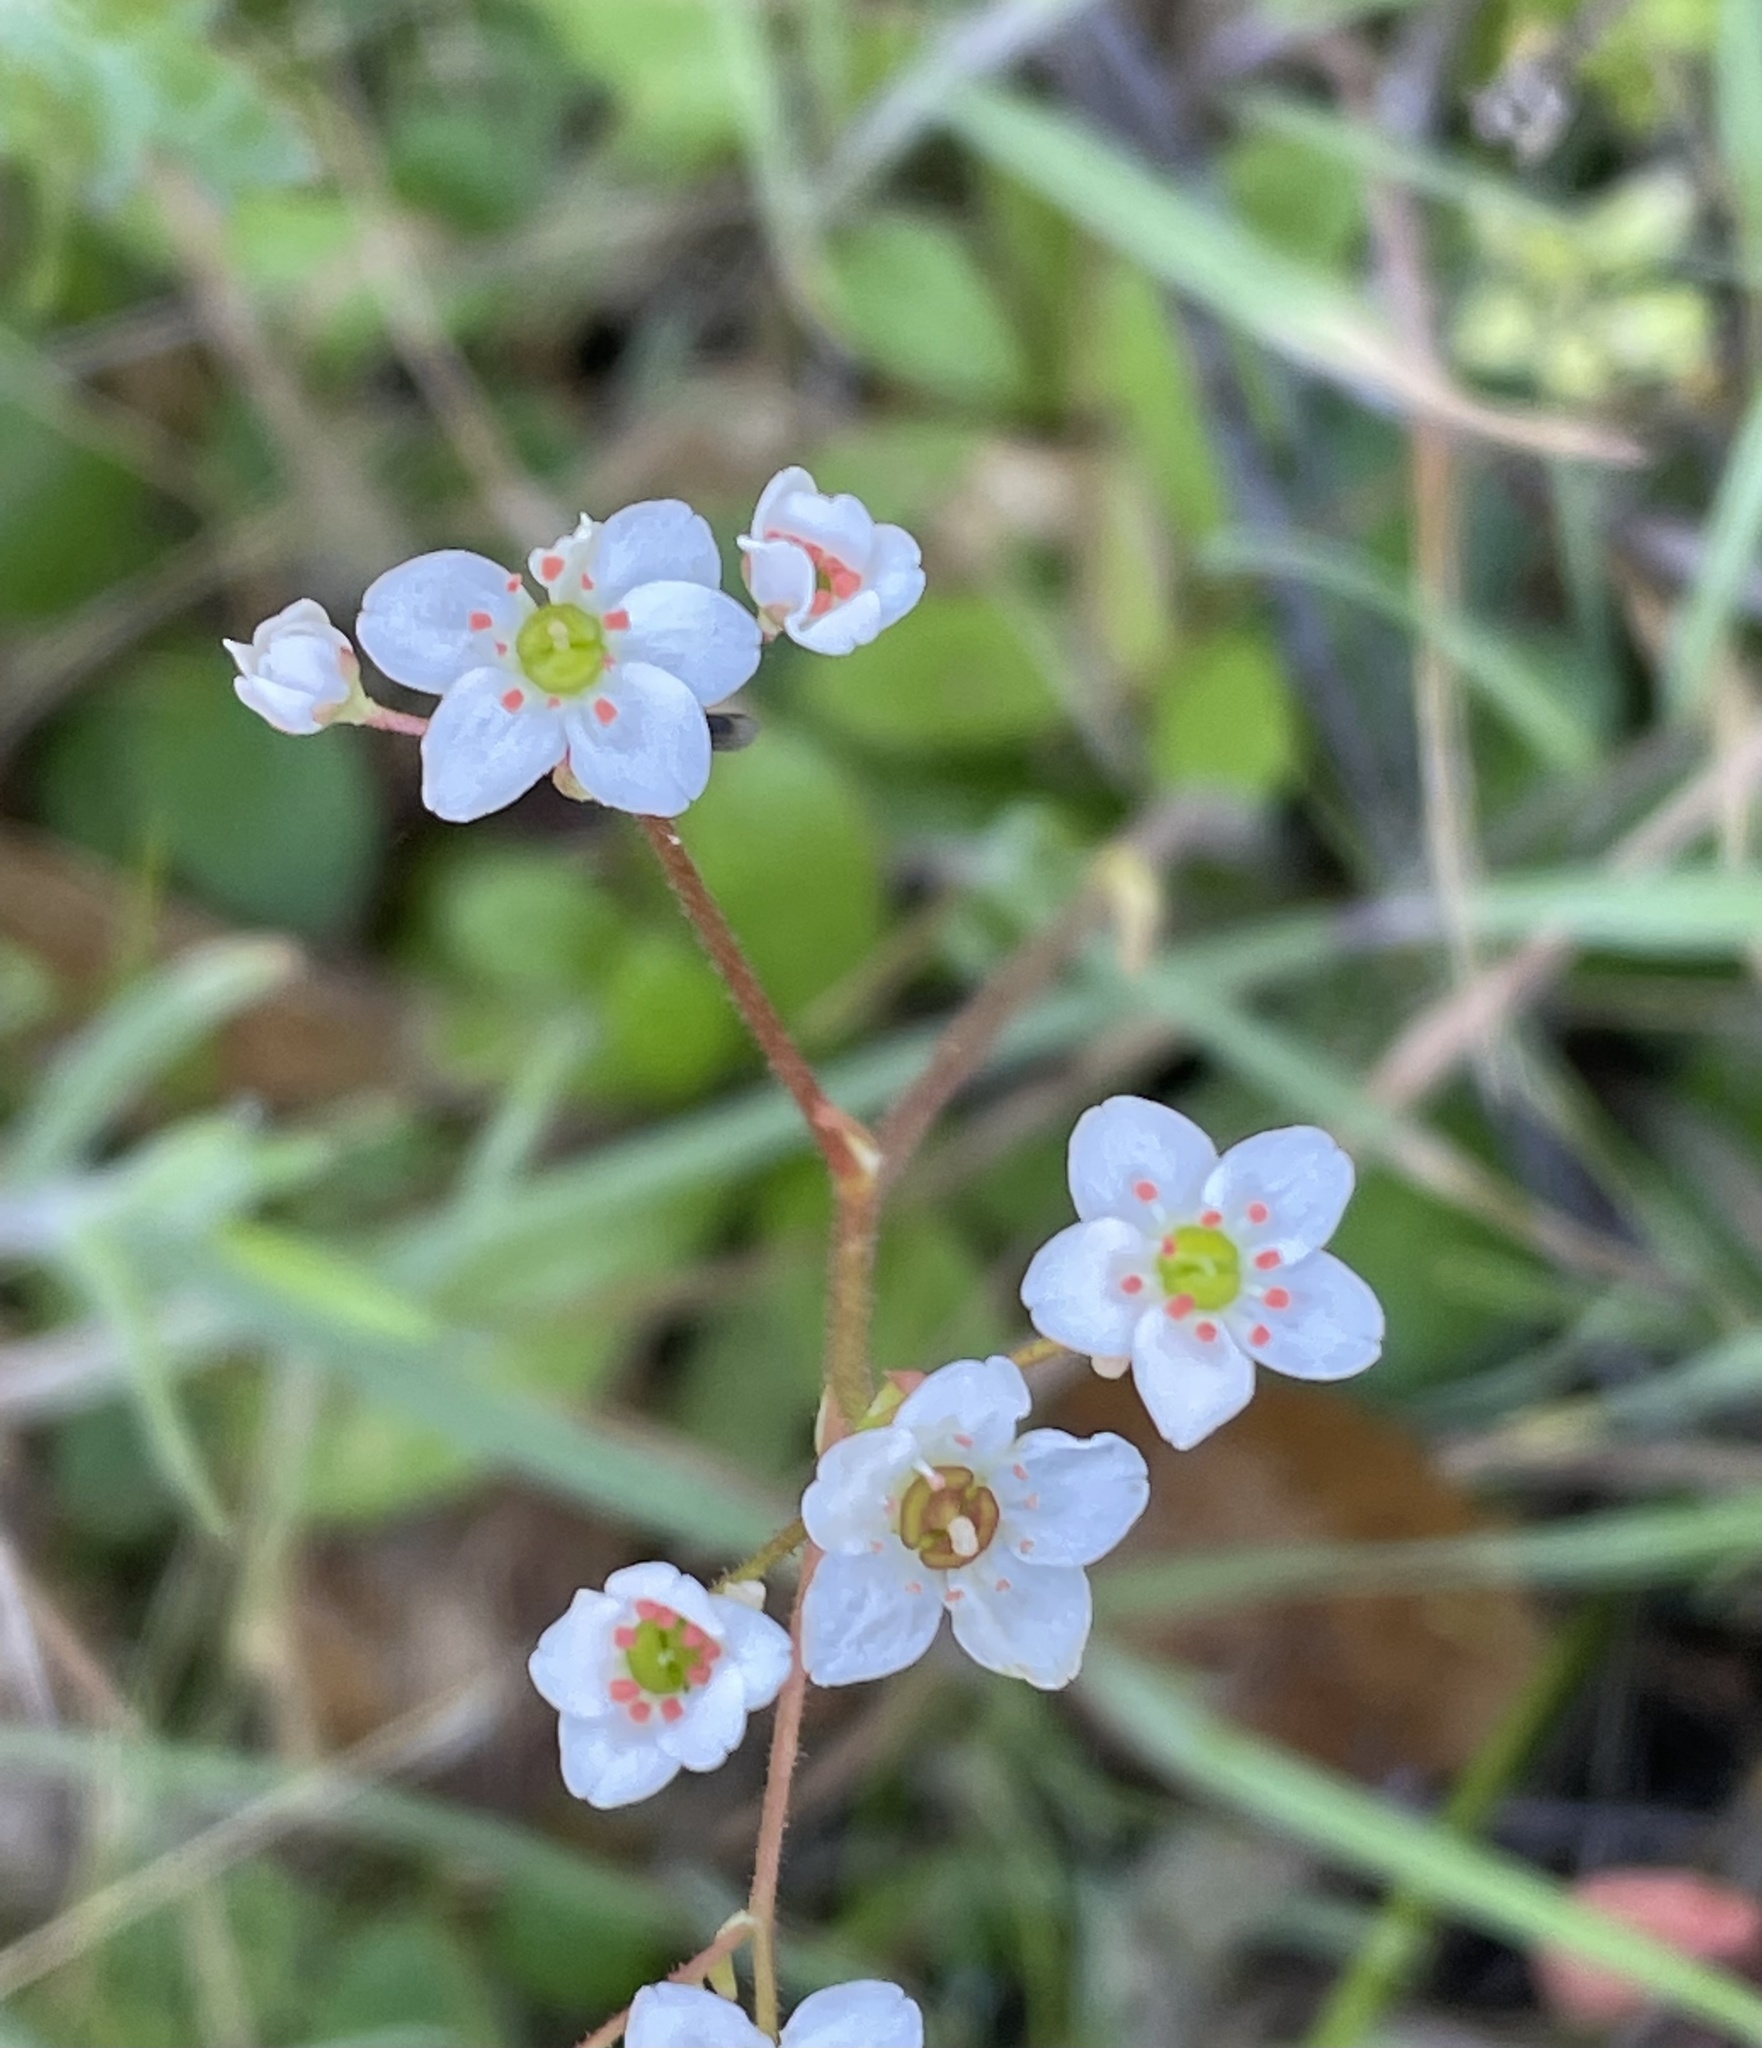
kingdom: Plantae
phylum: Tracheophyta
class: Magnoliopsida
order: Saxifragales
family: Saxifragaceae
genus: Micranthes
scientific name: Micranthes californica
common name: California saxifrage
